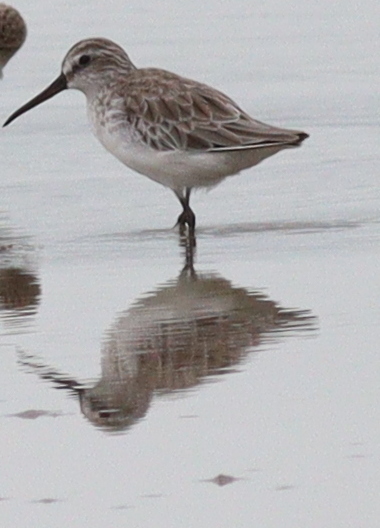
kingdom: Animalia
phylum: Chordata
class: Aves
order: Charadriiformes
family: Scolopacidae
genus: Calidris
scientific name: Calidris falcinellus
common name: Broad-billed sandpiper
